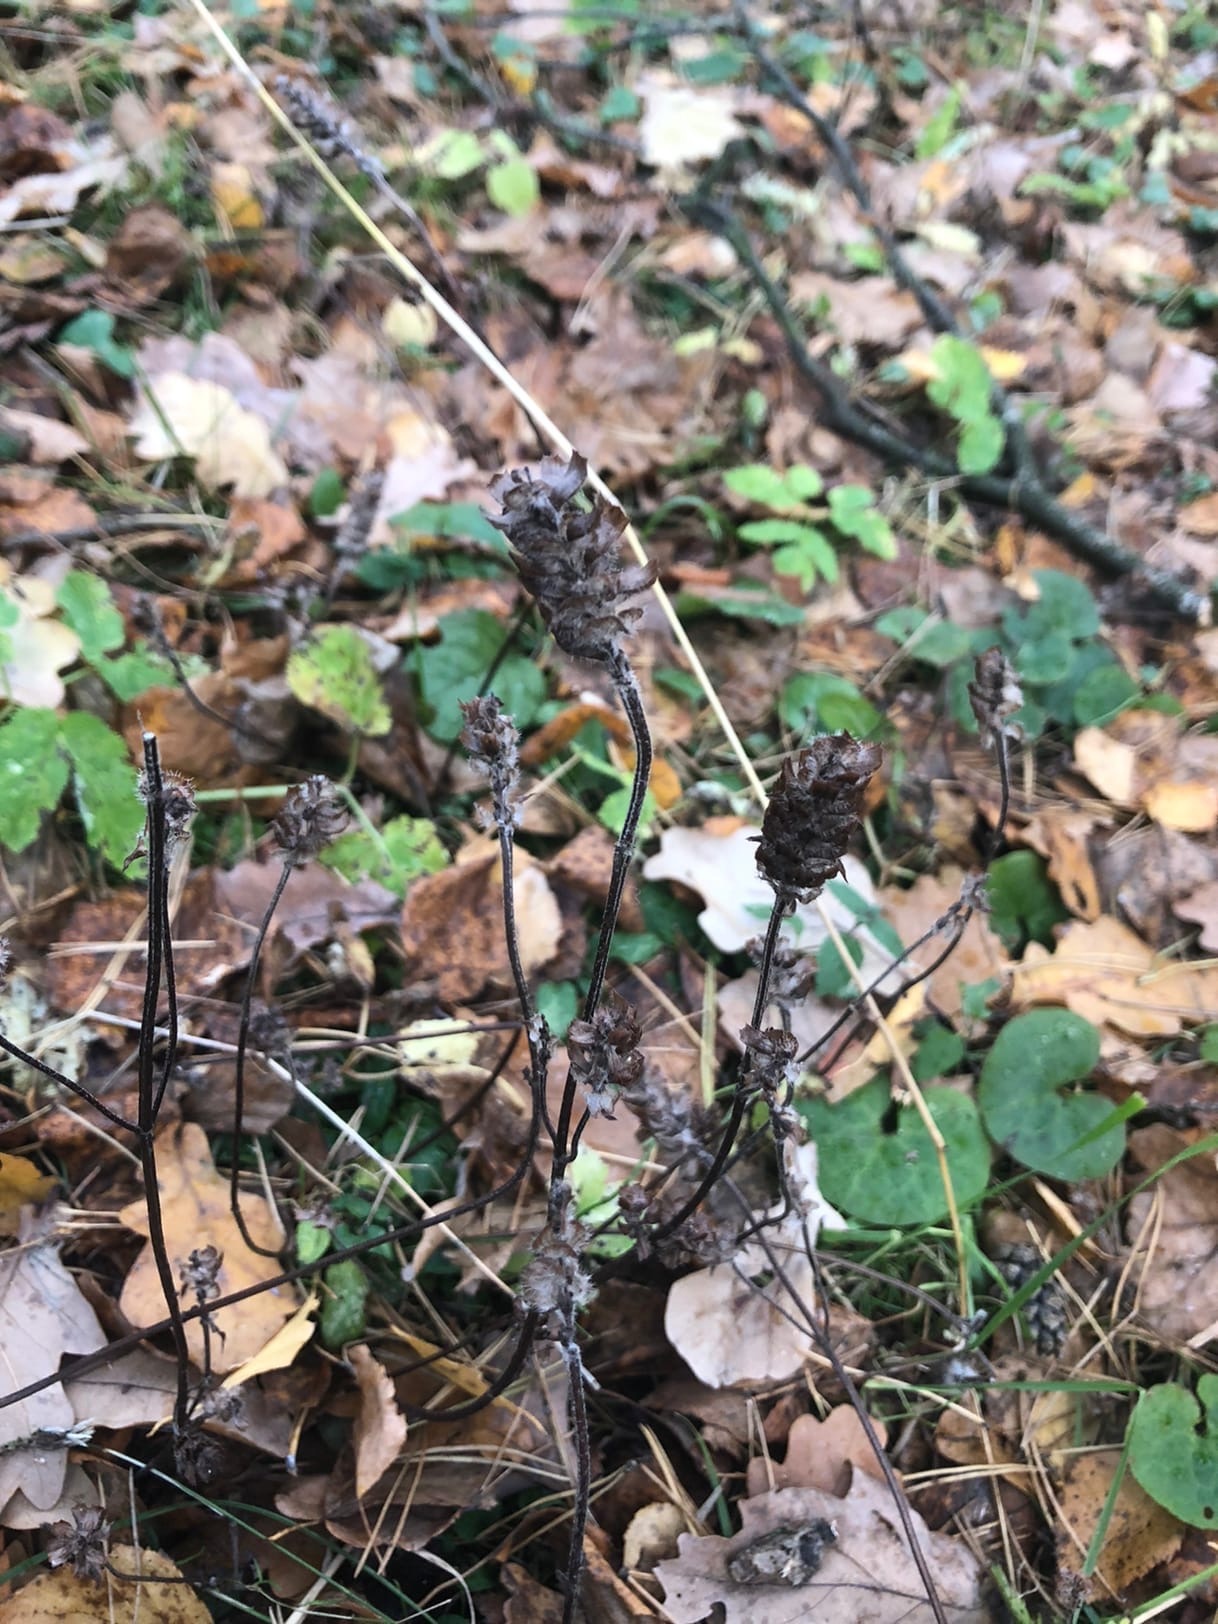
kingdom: Plantae
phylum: Tracheophyta
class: Magnoliopsida
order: Lamiales
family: Lamiaceae
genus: Prunella
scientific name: Prunella vulgaris
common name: Heal-all
